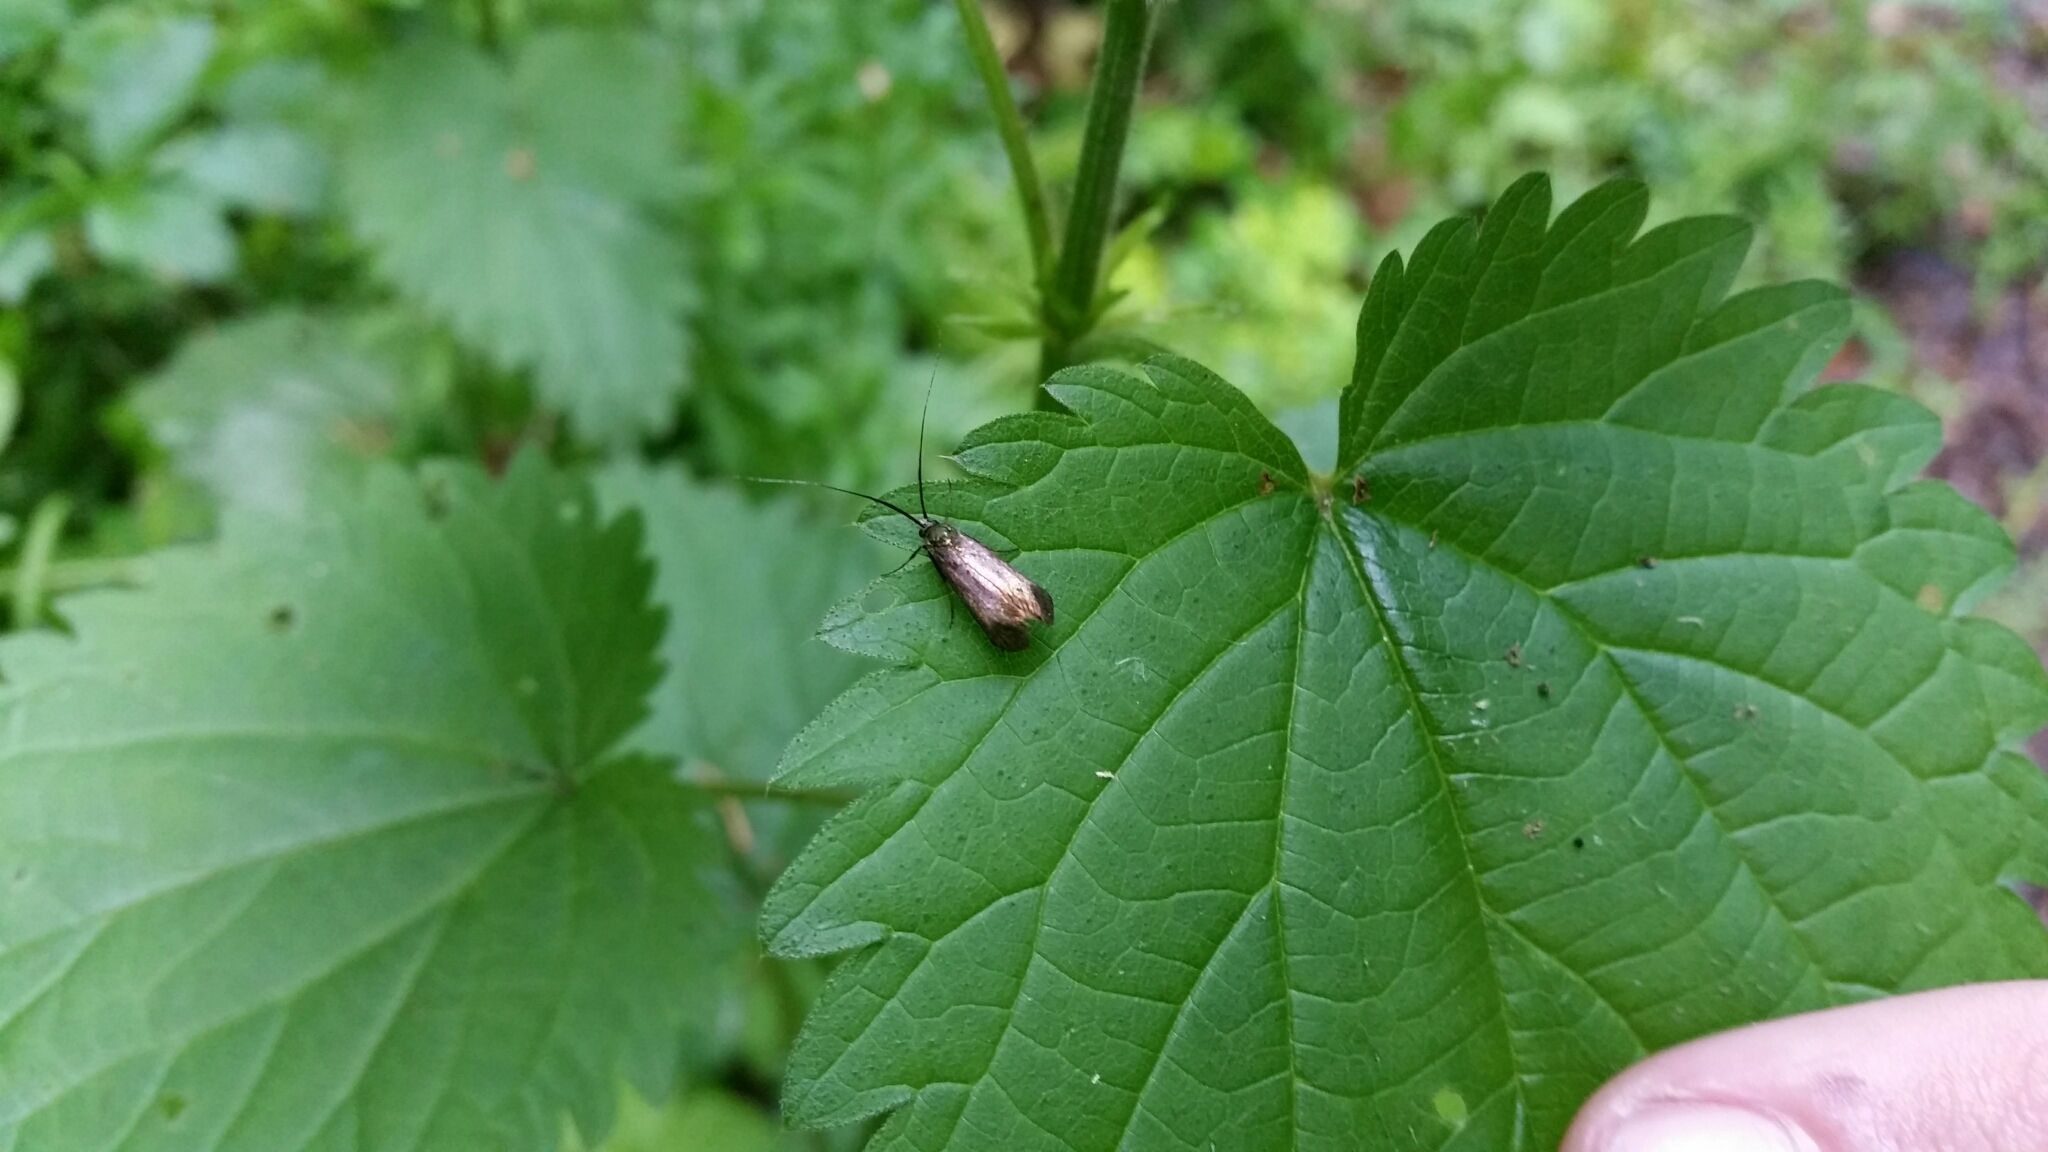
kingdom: Animalia
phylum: Arthropoda
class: Insecta
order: Lepidoptera
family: Adelidae
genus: Adela
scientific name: Adela viridella
